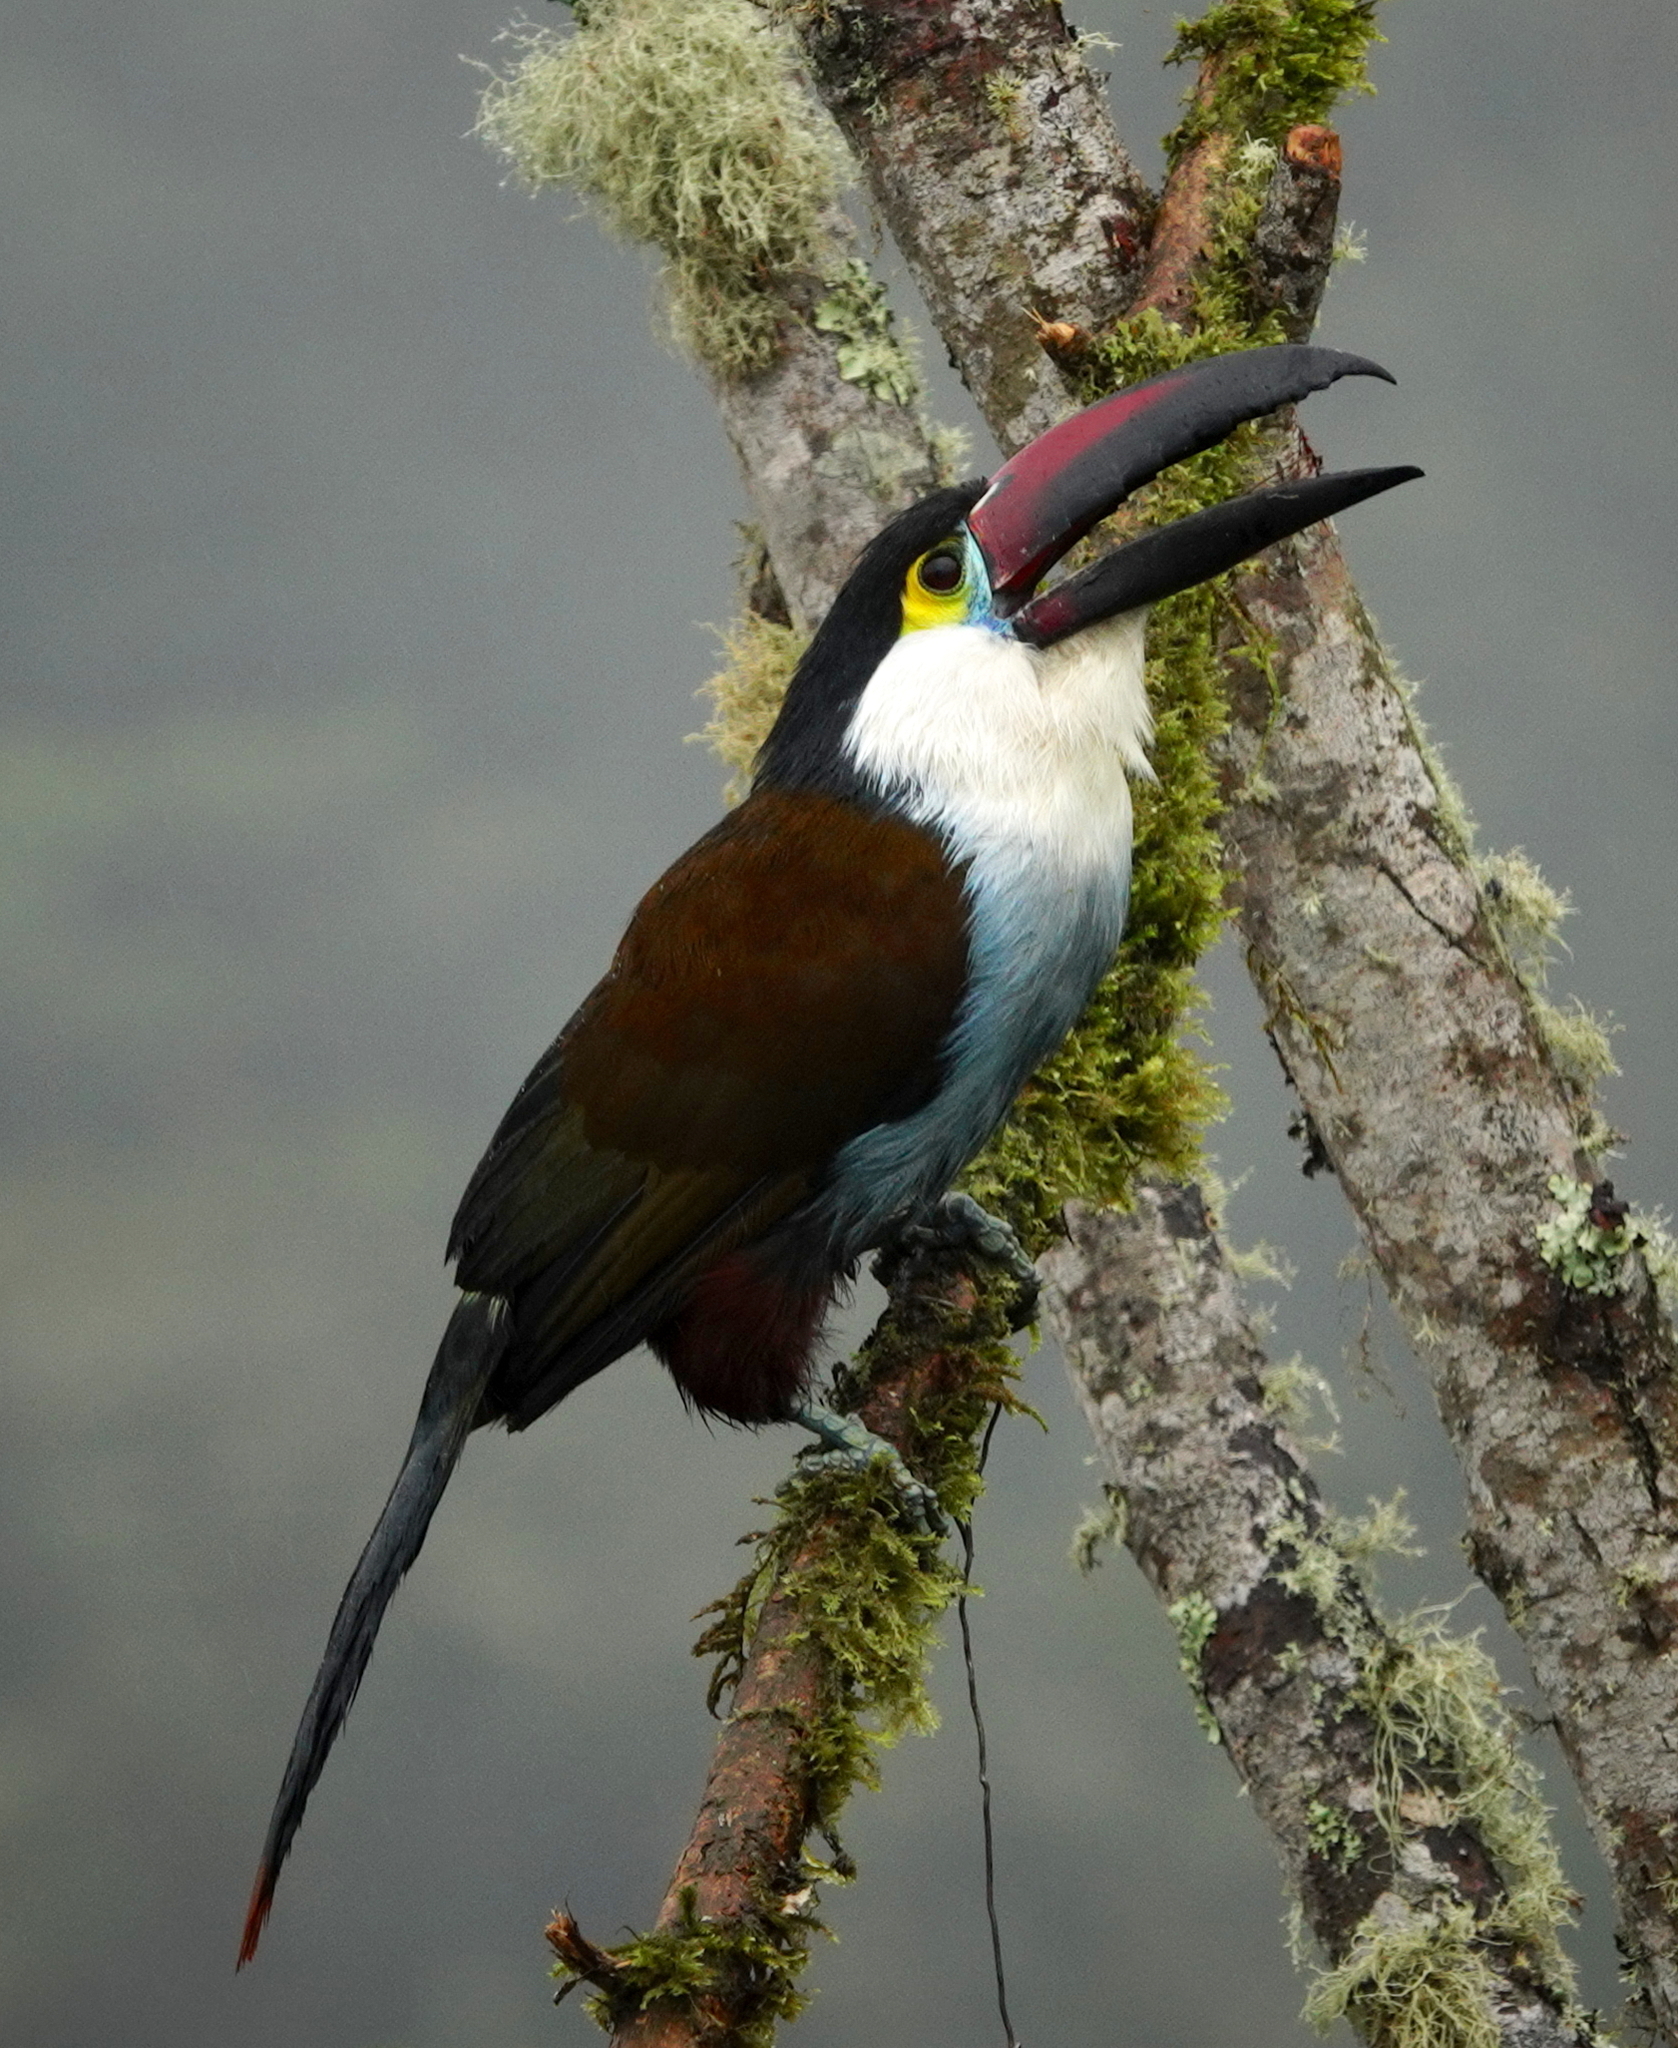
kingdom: Animalia
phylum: Chordata
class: Aves
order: Piciformes
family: Ramphastidae
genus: Andigena
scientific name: Andigena nigrirostris
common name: Black-billed mountain toucan
